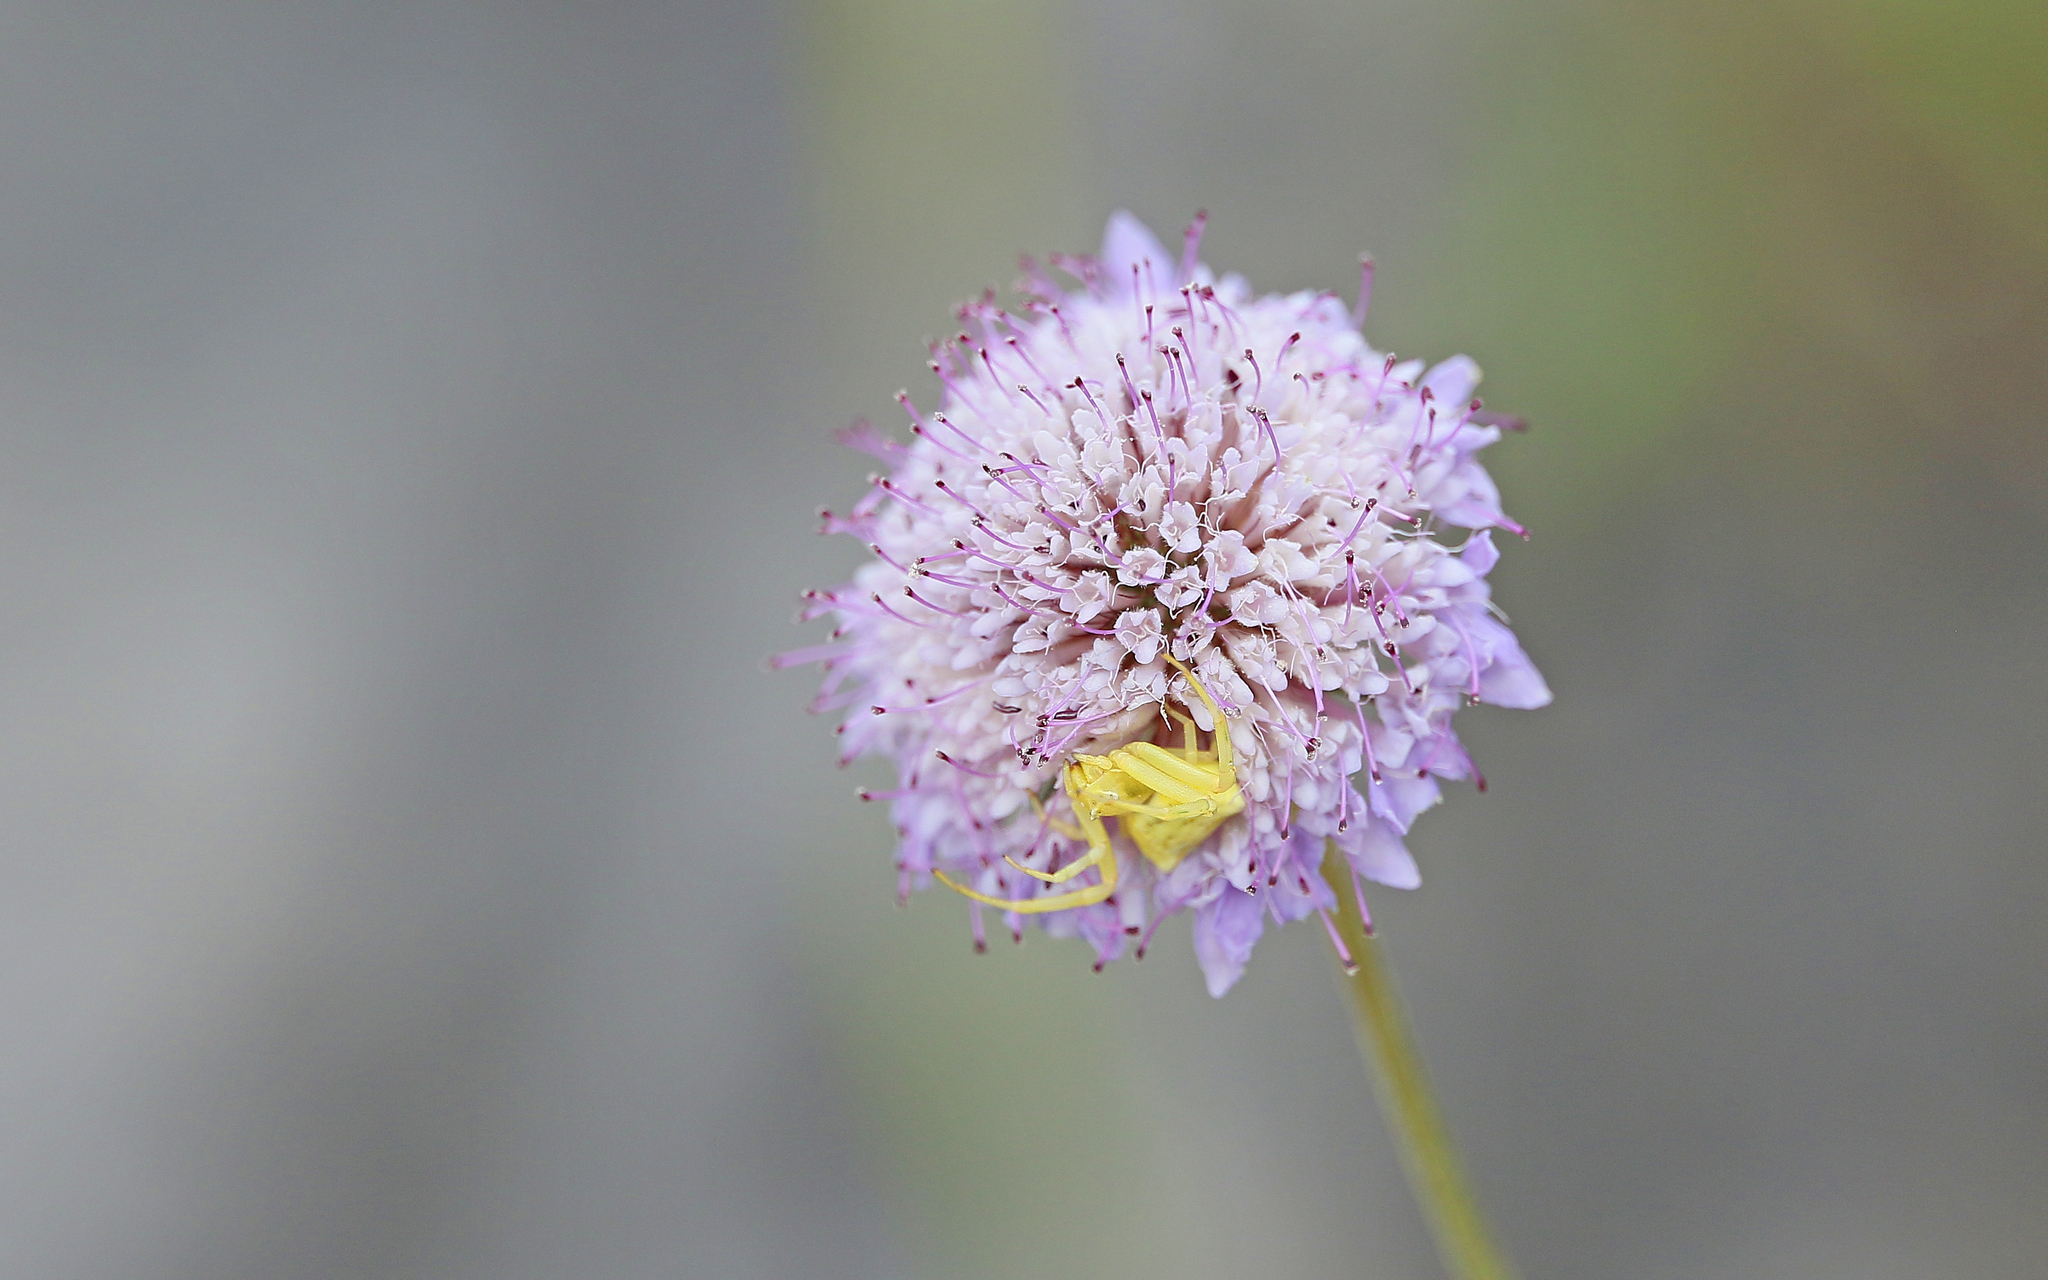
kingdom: Animalia
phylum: Arthropoda
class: Arachnida
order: Araneae
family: Thomisidae
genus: Thomisus
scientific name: Thomisus onustus
